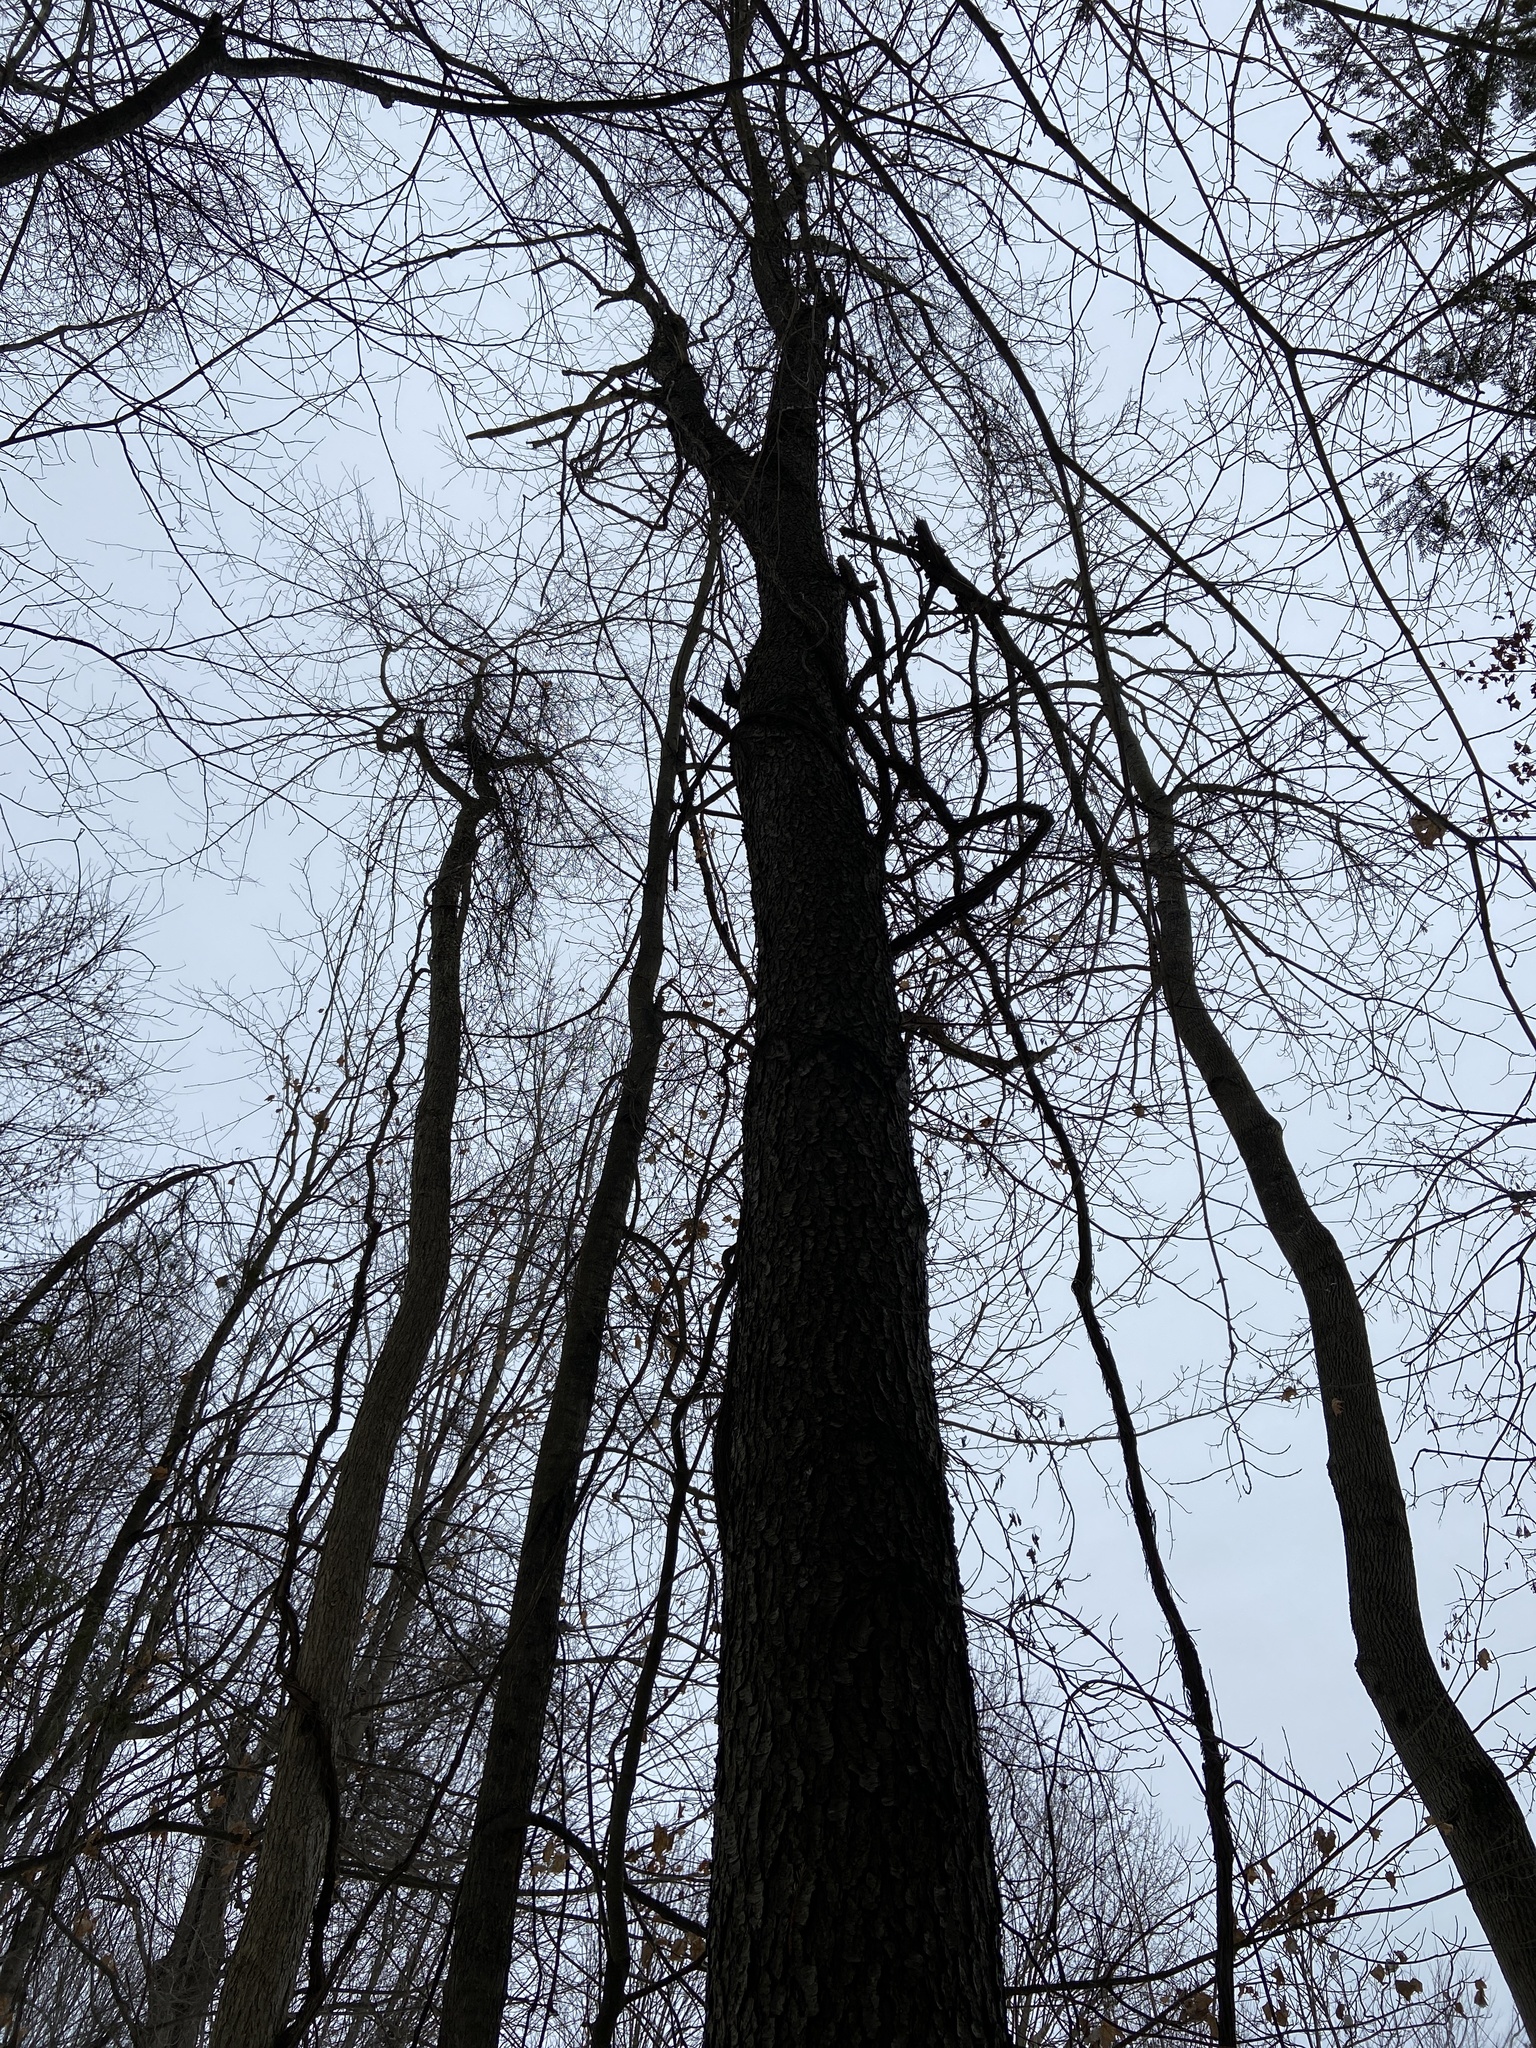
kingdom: Plantae
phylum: Tracheophyta
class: Magnoliopsida
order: Rosales
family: Rosaceae
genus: Prunus
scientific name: Prunus serotina
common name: Black cherry
